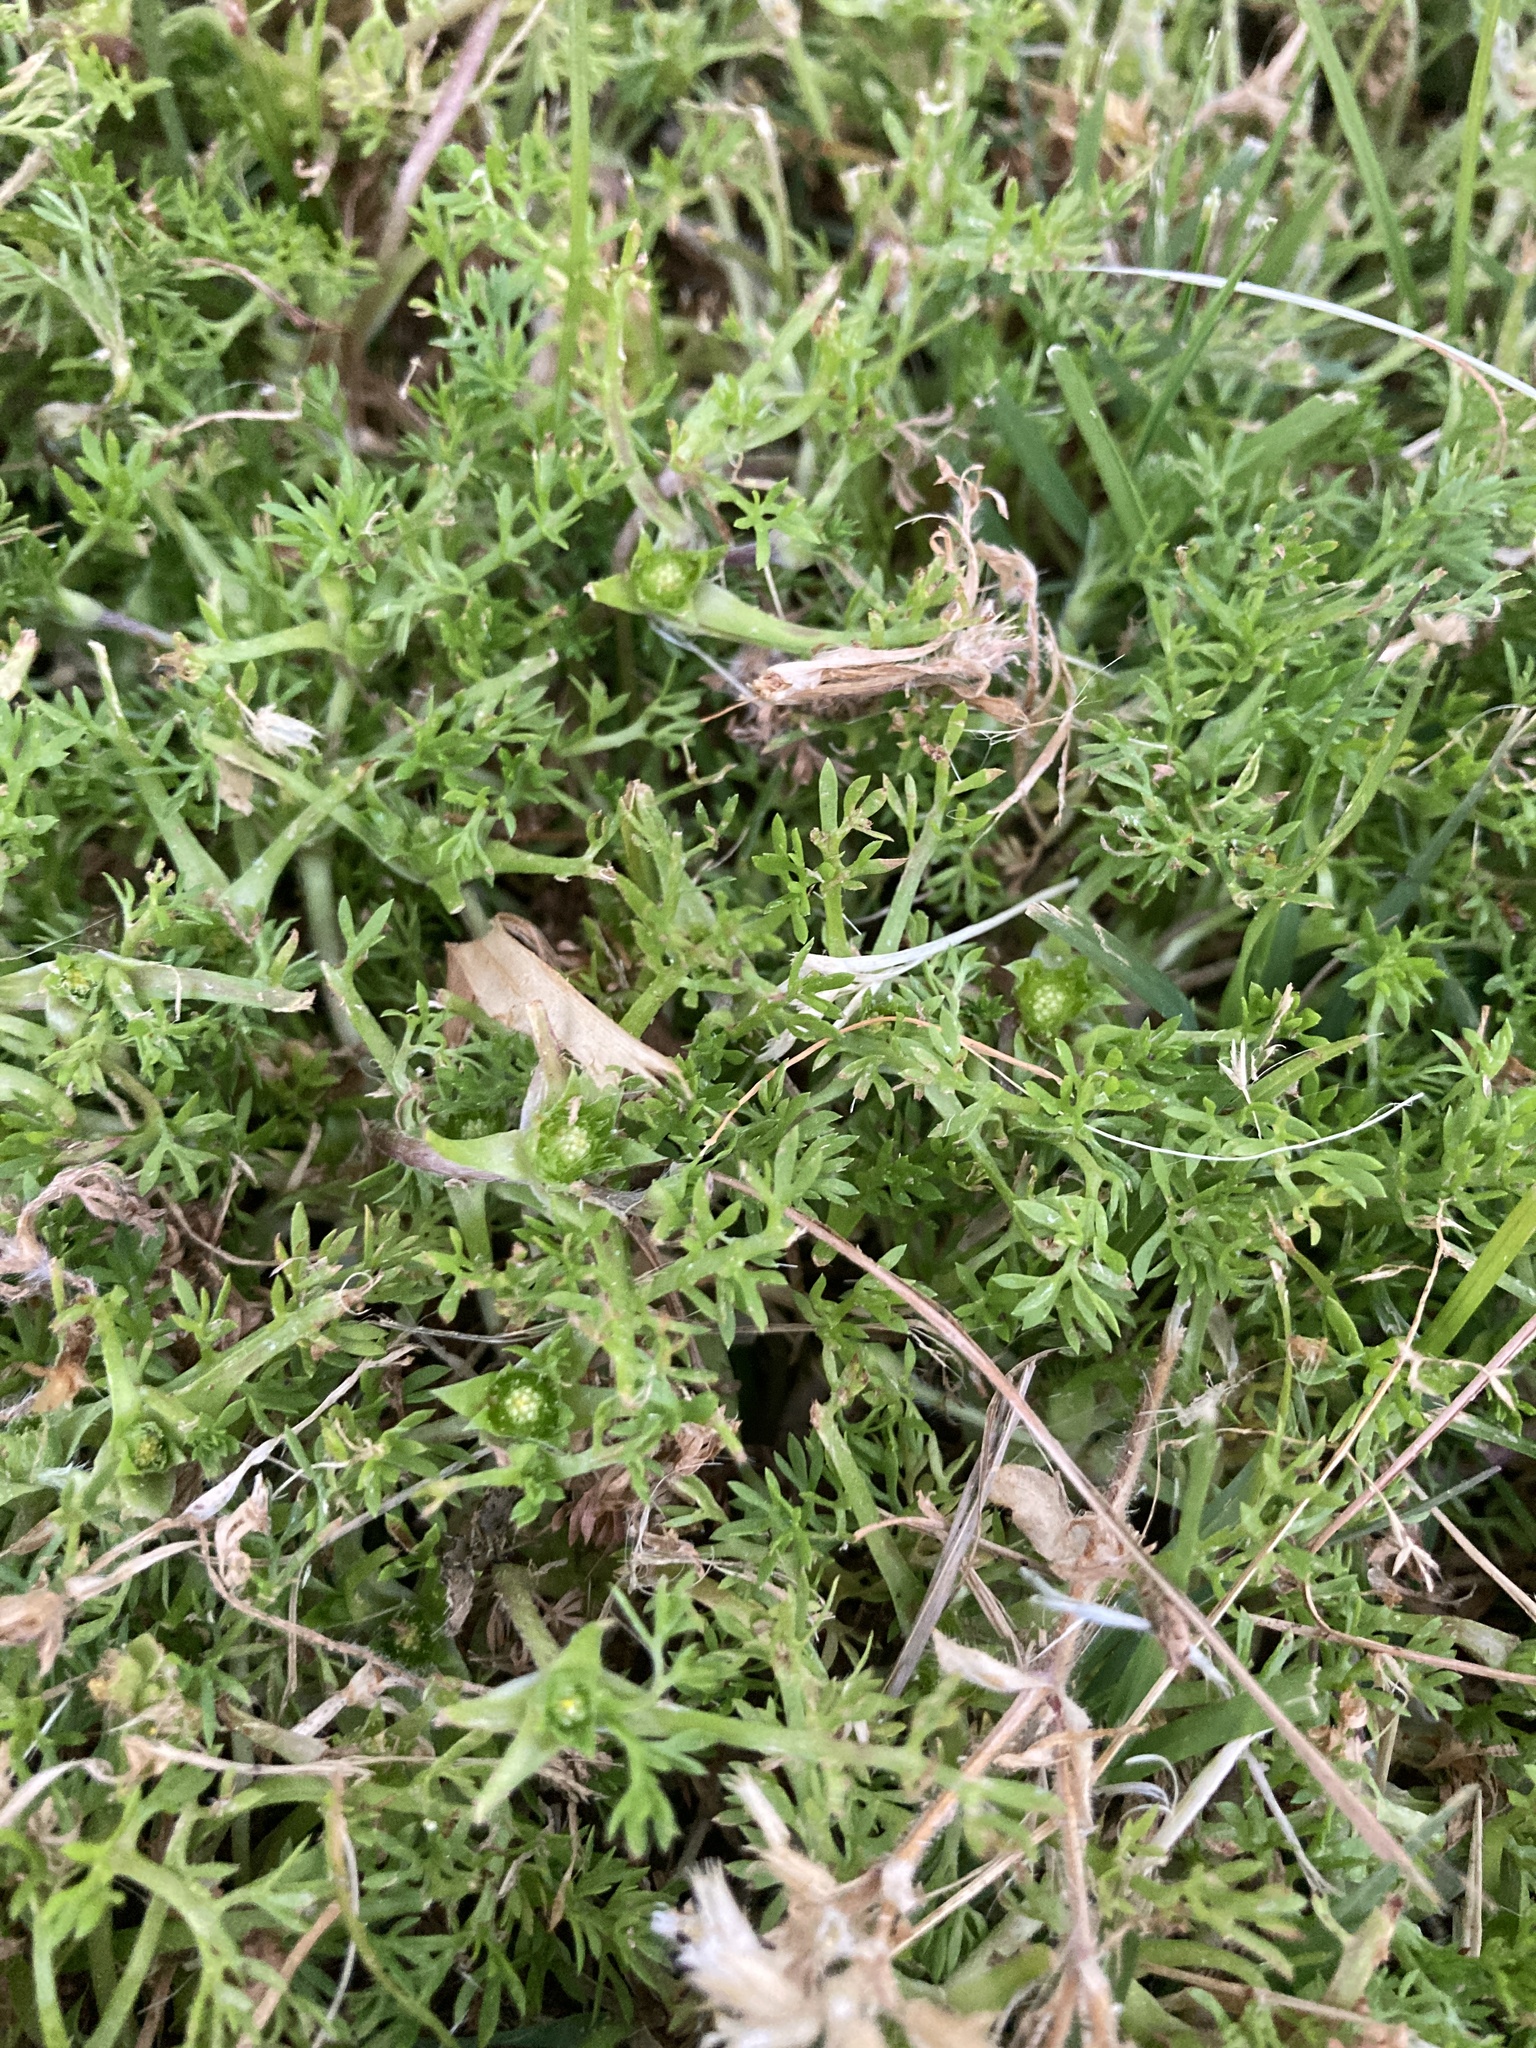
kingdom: Plantae
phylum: Tracheophyta
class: Magnoliopsida
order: Asterales
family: Asteraceae
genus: Soliva
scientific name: Soliva sessilis
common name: Field burrweed
